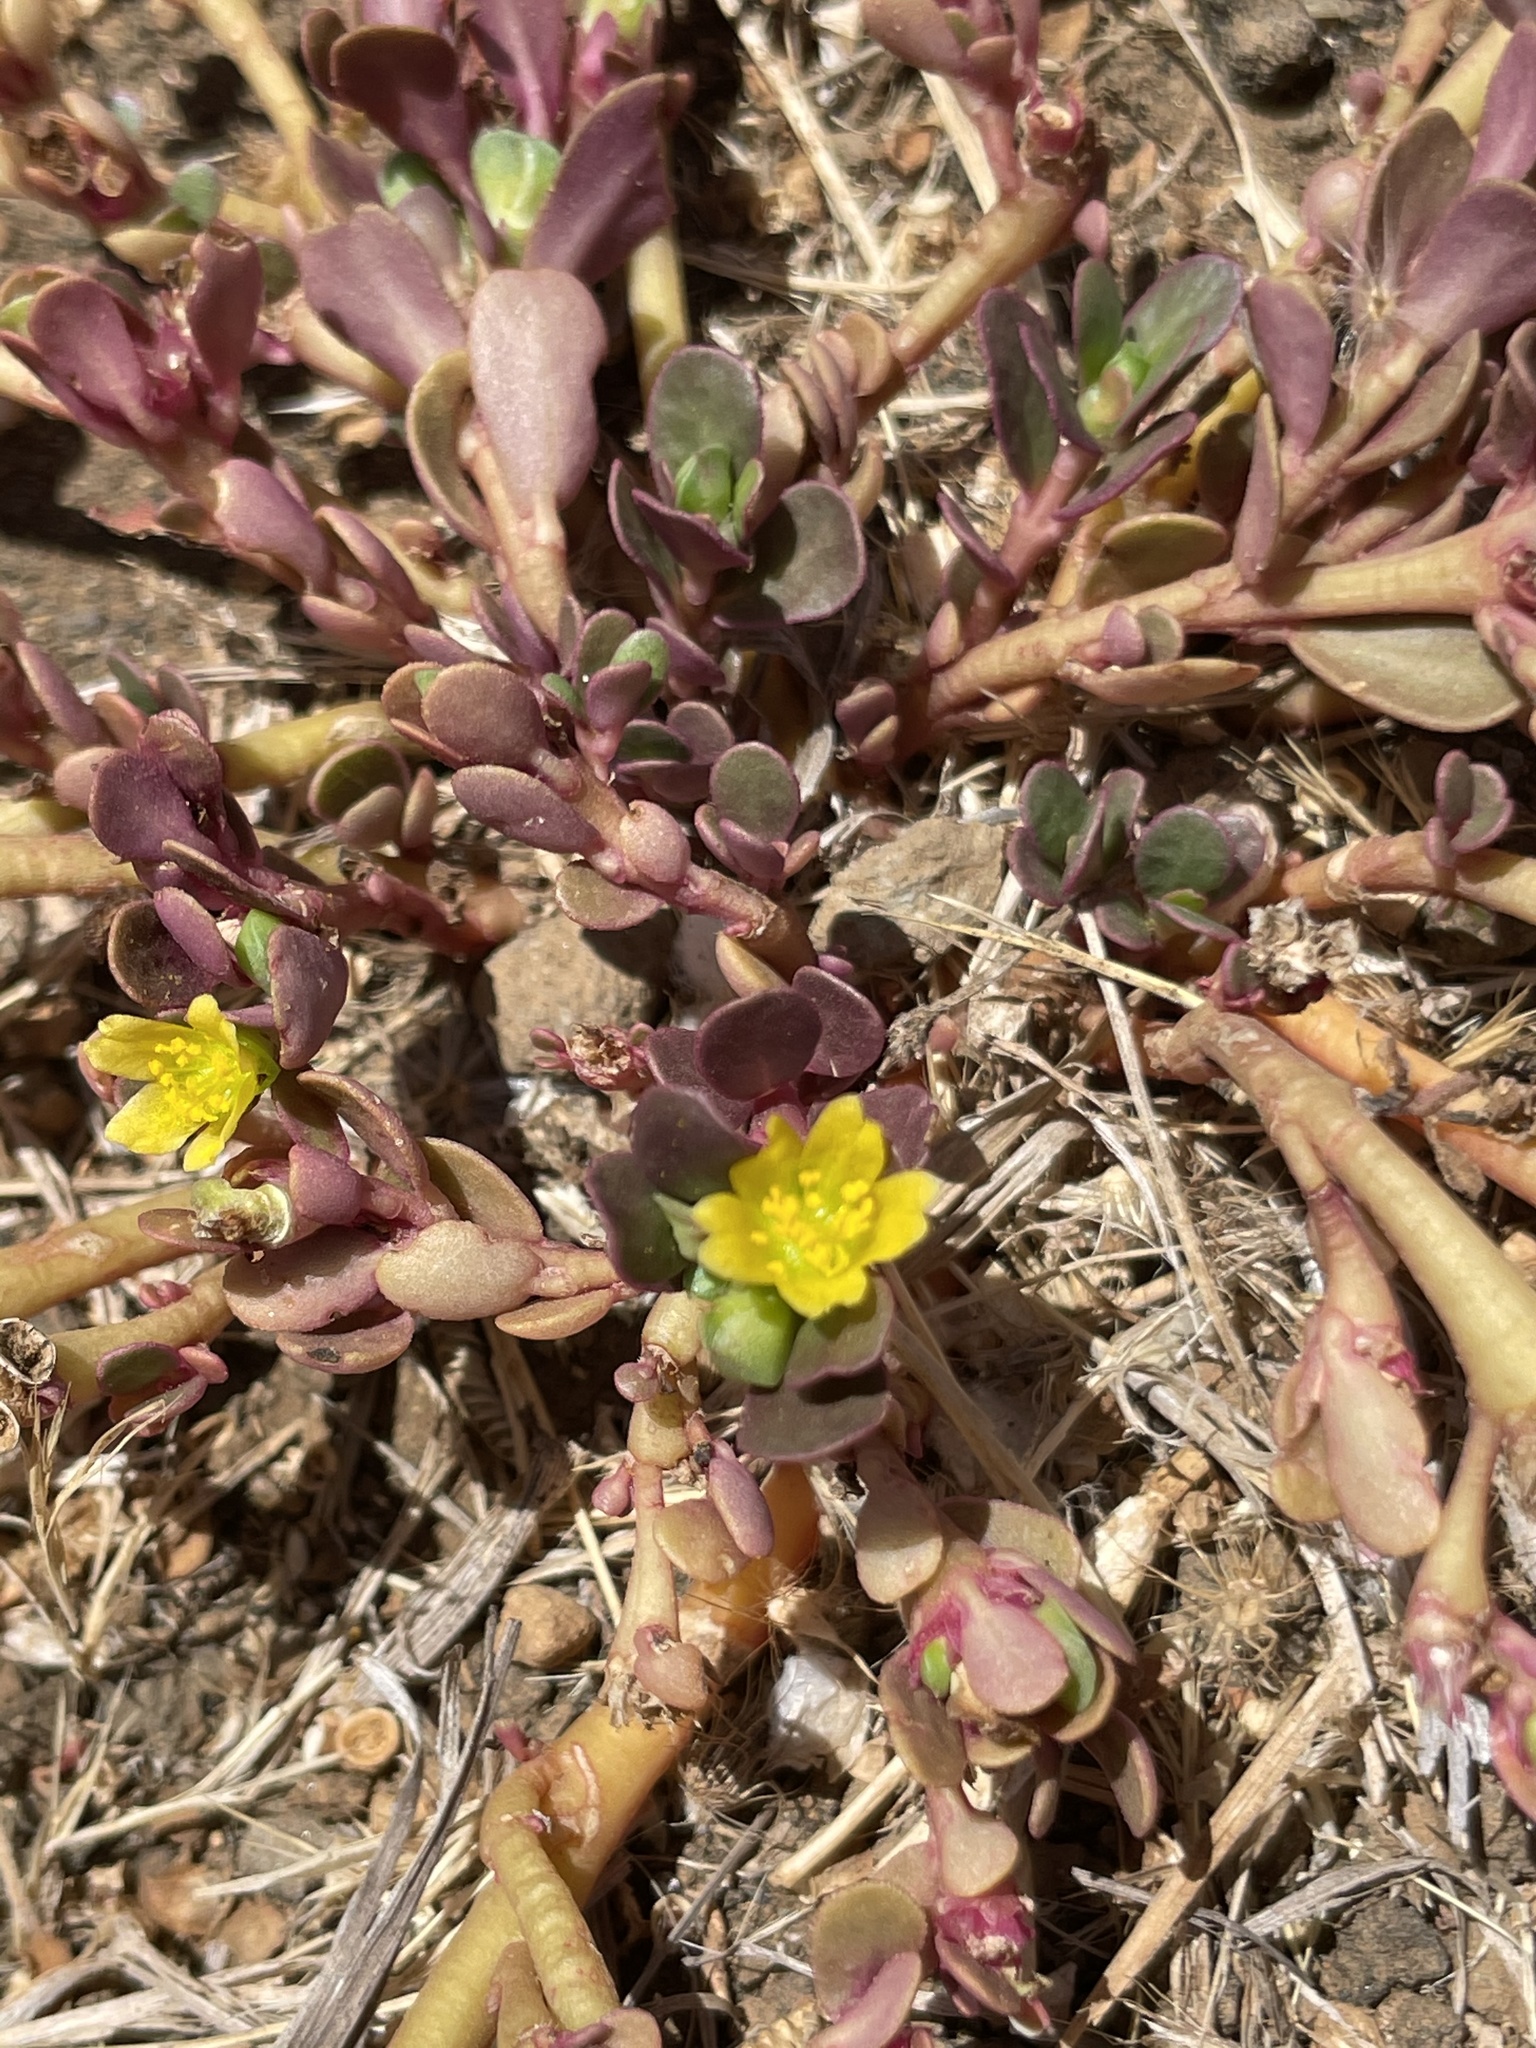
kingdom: Plantae
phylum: Tracheophyta
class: Magnoliopsida
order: Caryophyllales
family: Portulacaceae
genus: Portulaca
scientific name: Portulaca oleracea
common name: Common purslane
